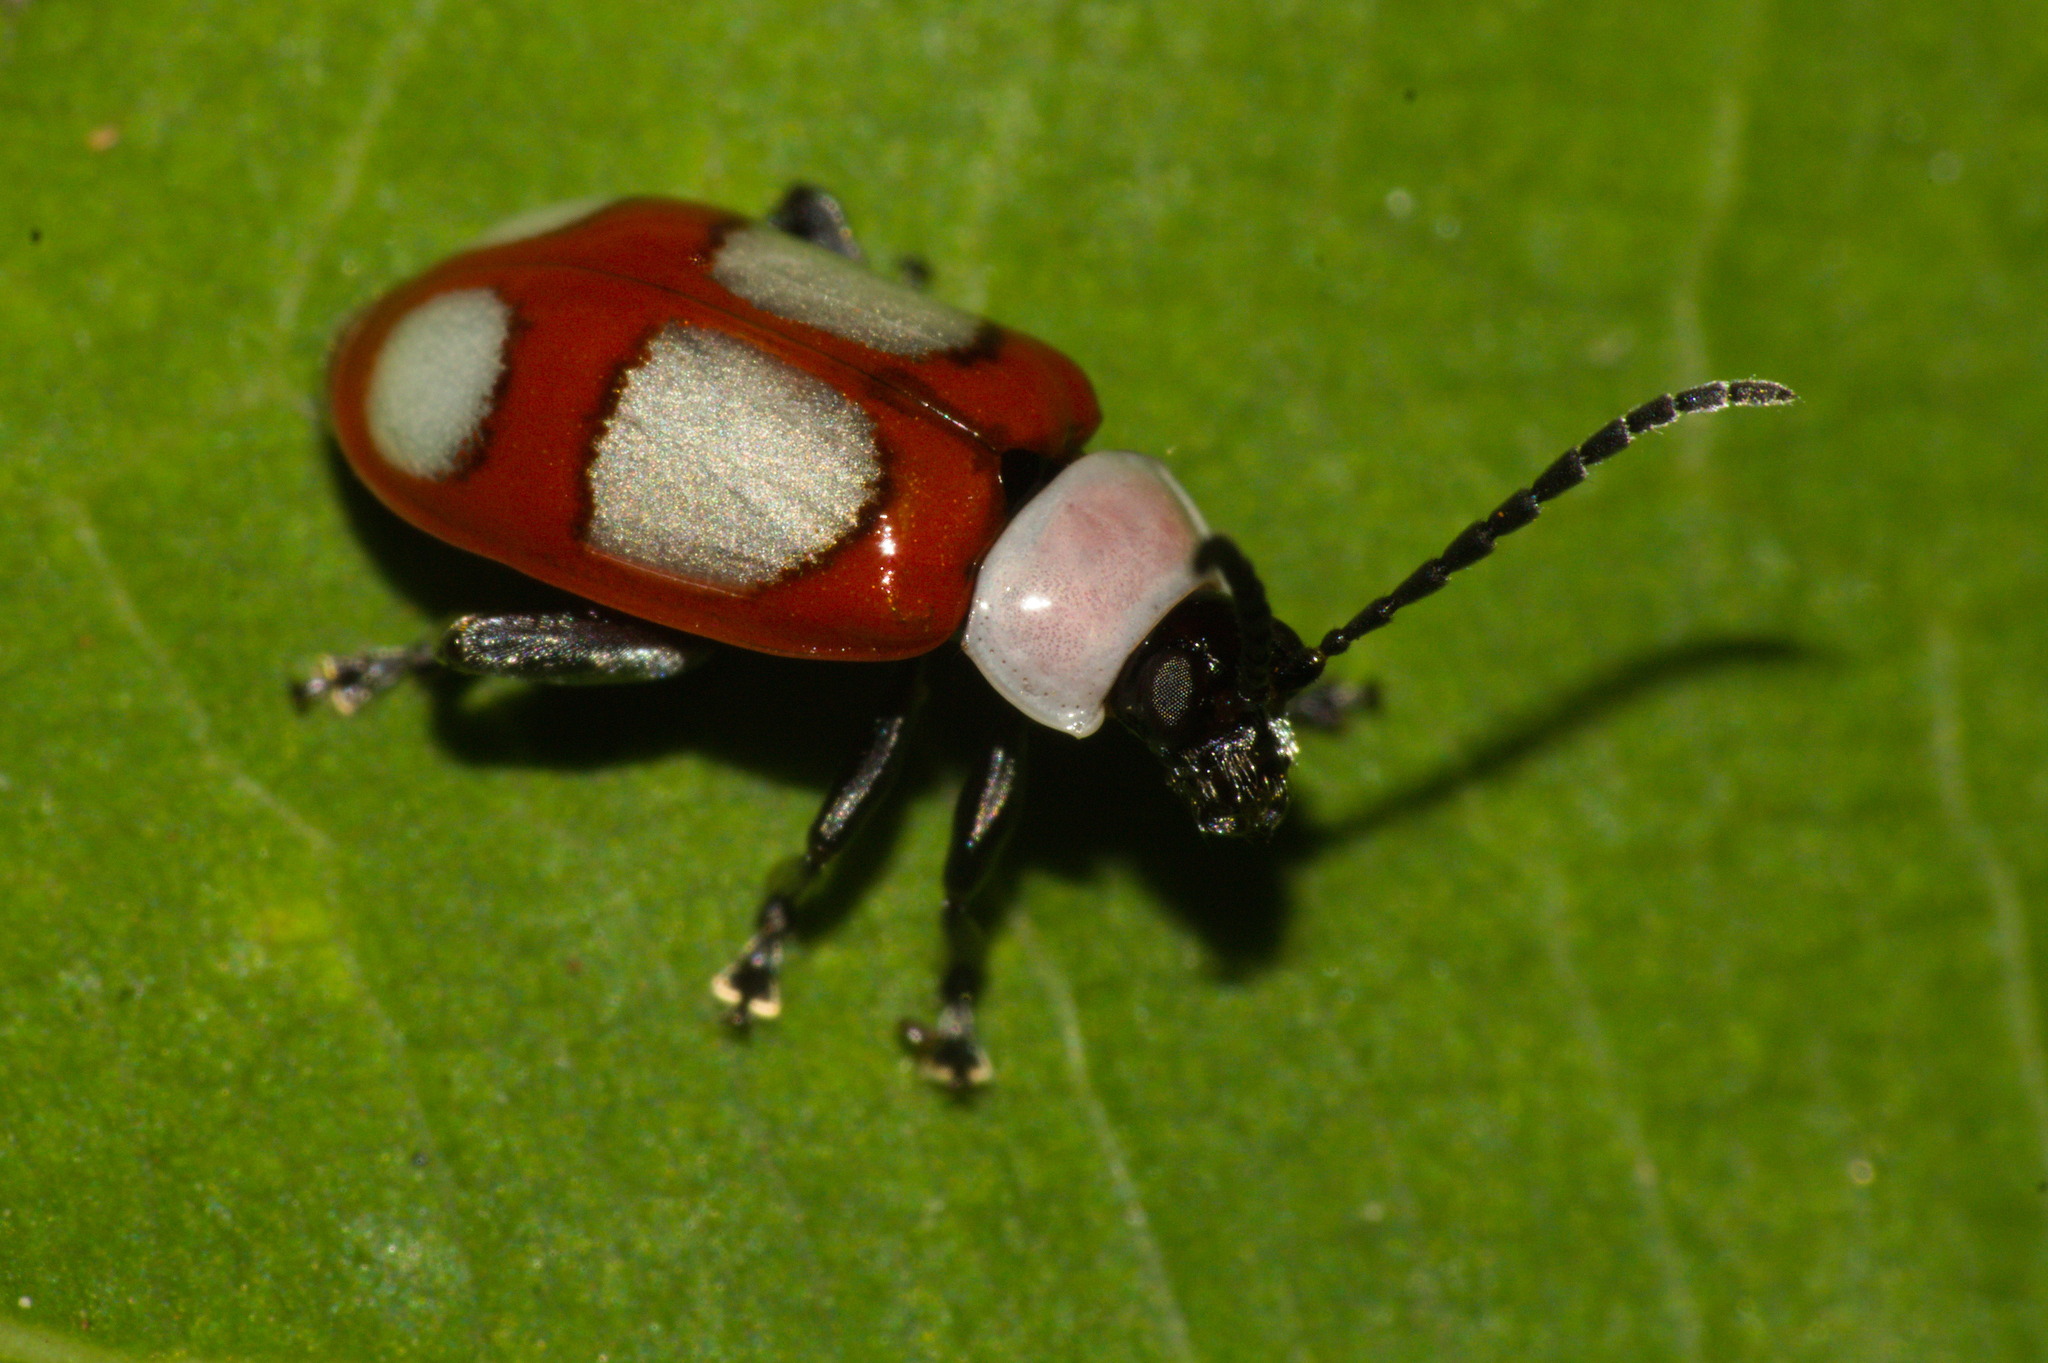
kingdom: Animalia
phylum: Arthropoda
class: Insecta
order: Coleoptera
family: Chrysomelidae
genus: Phenrica
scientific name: Phenrica
